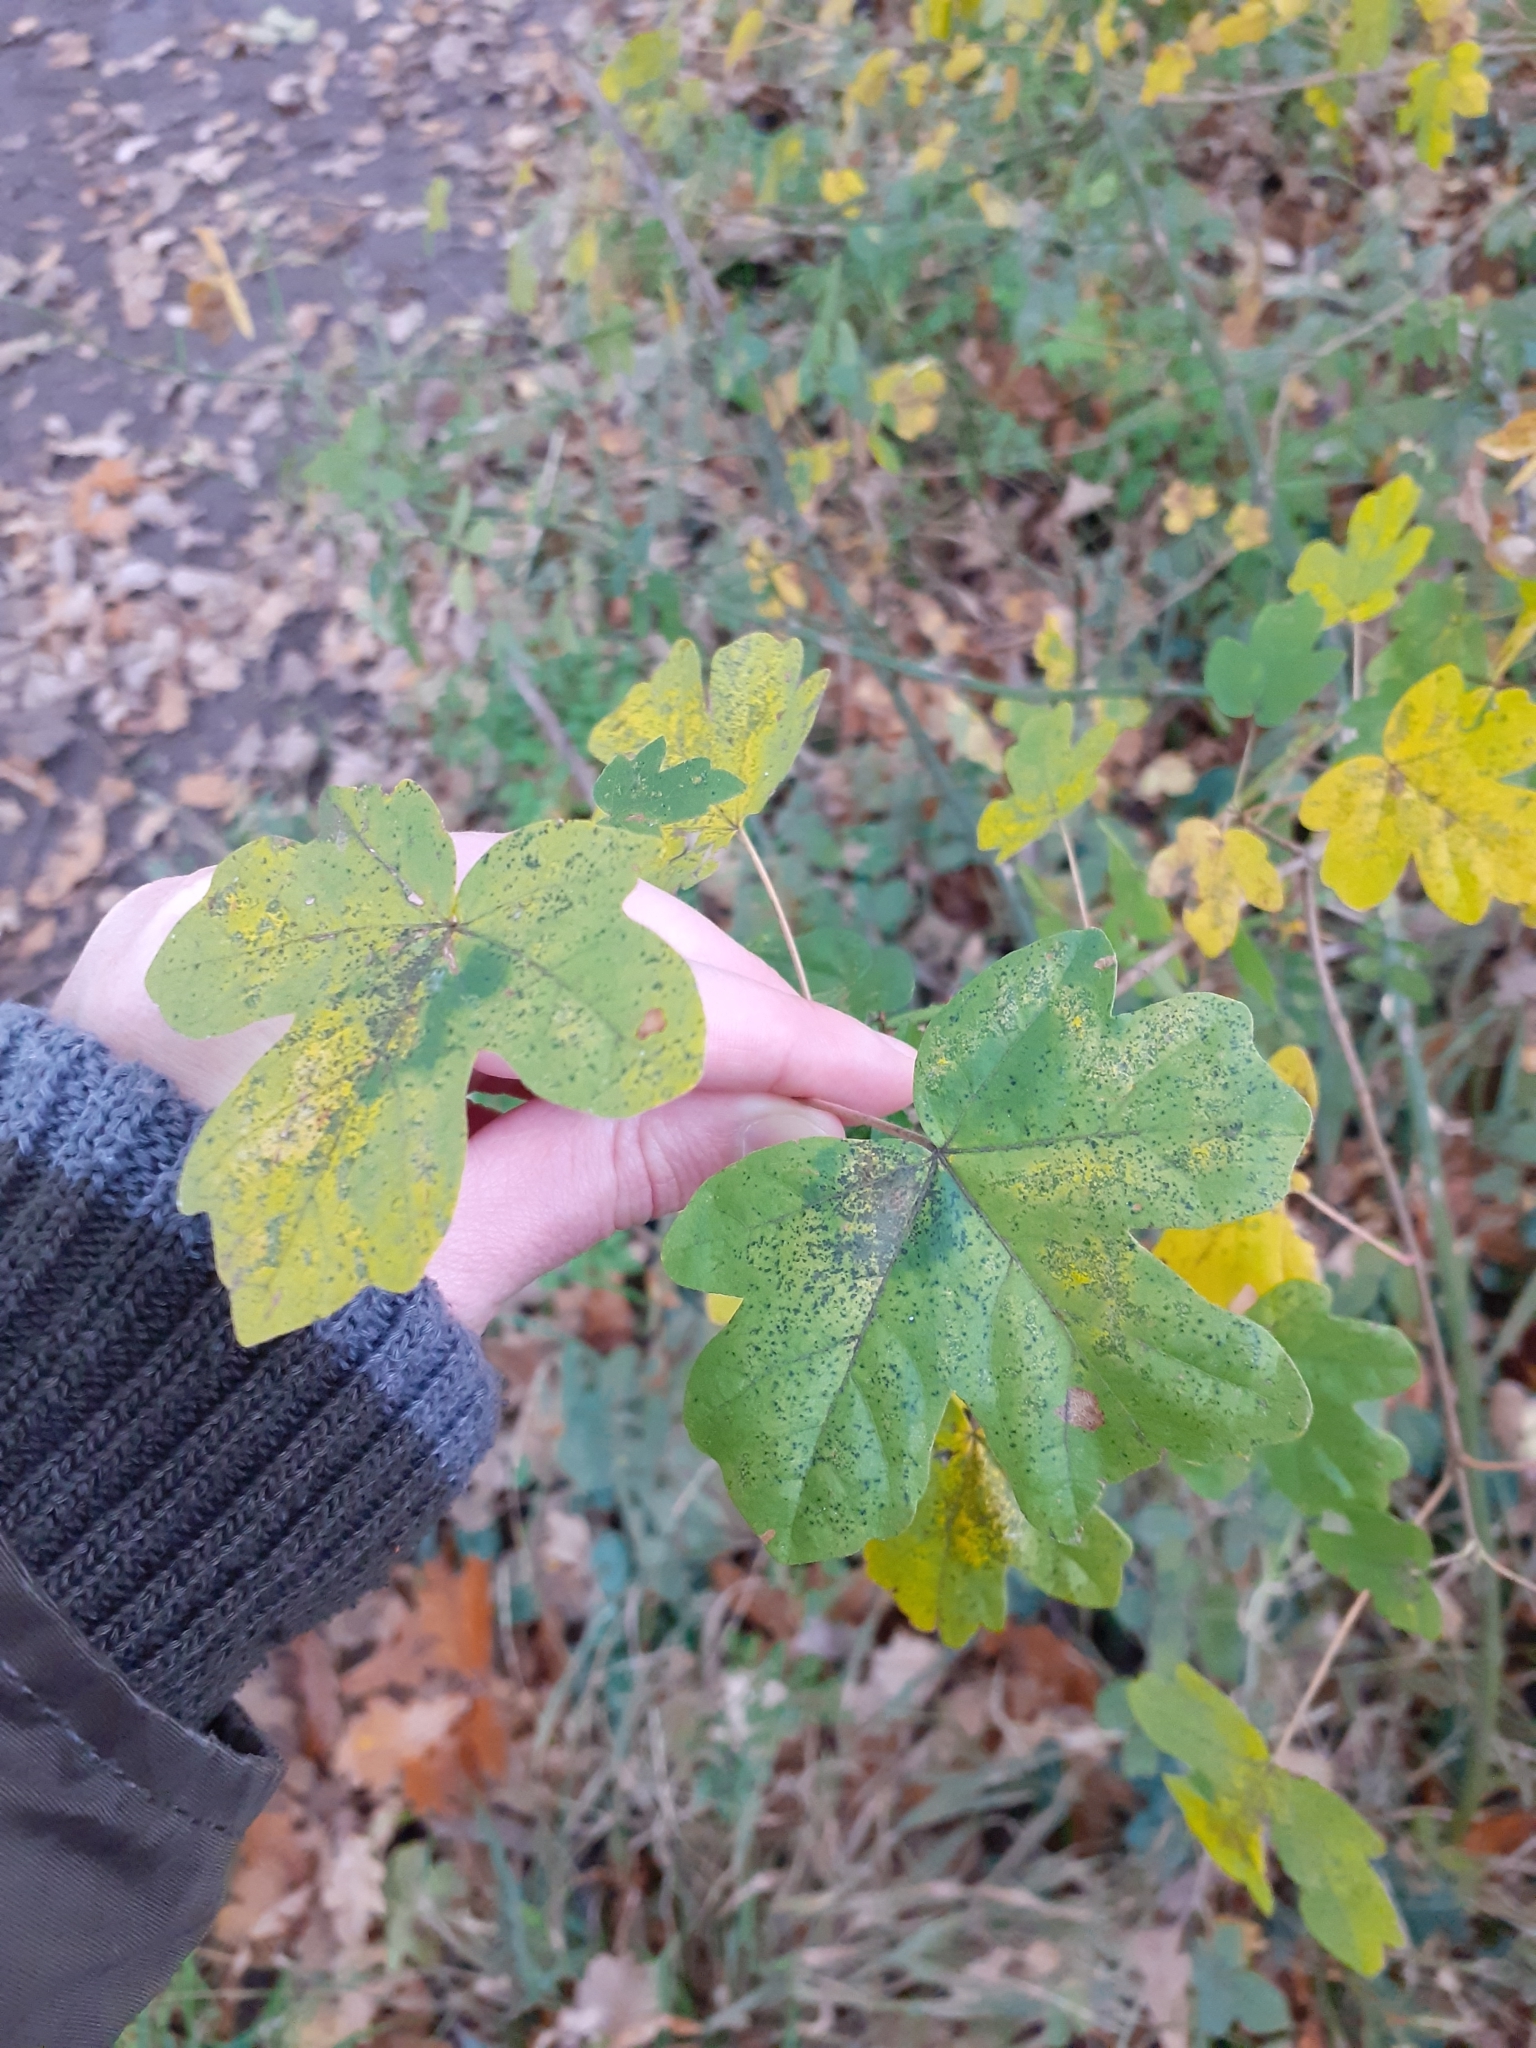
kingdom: Plantae
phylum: Tracheophyta
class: Magnoliopsida
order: Sapindales
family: Sapindaceae
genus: Acer
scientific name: Acer campestre
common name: Field maple
